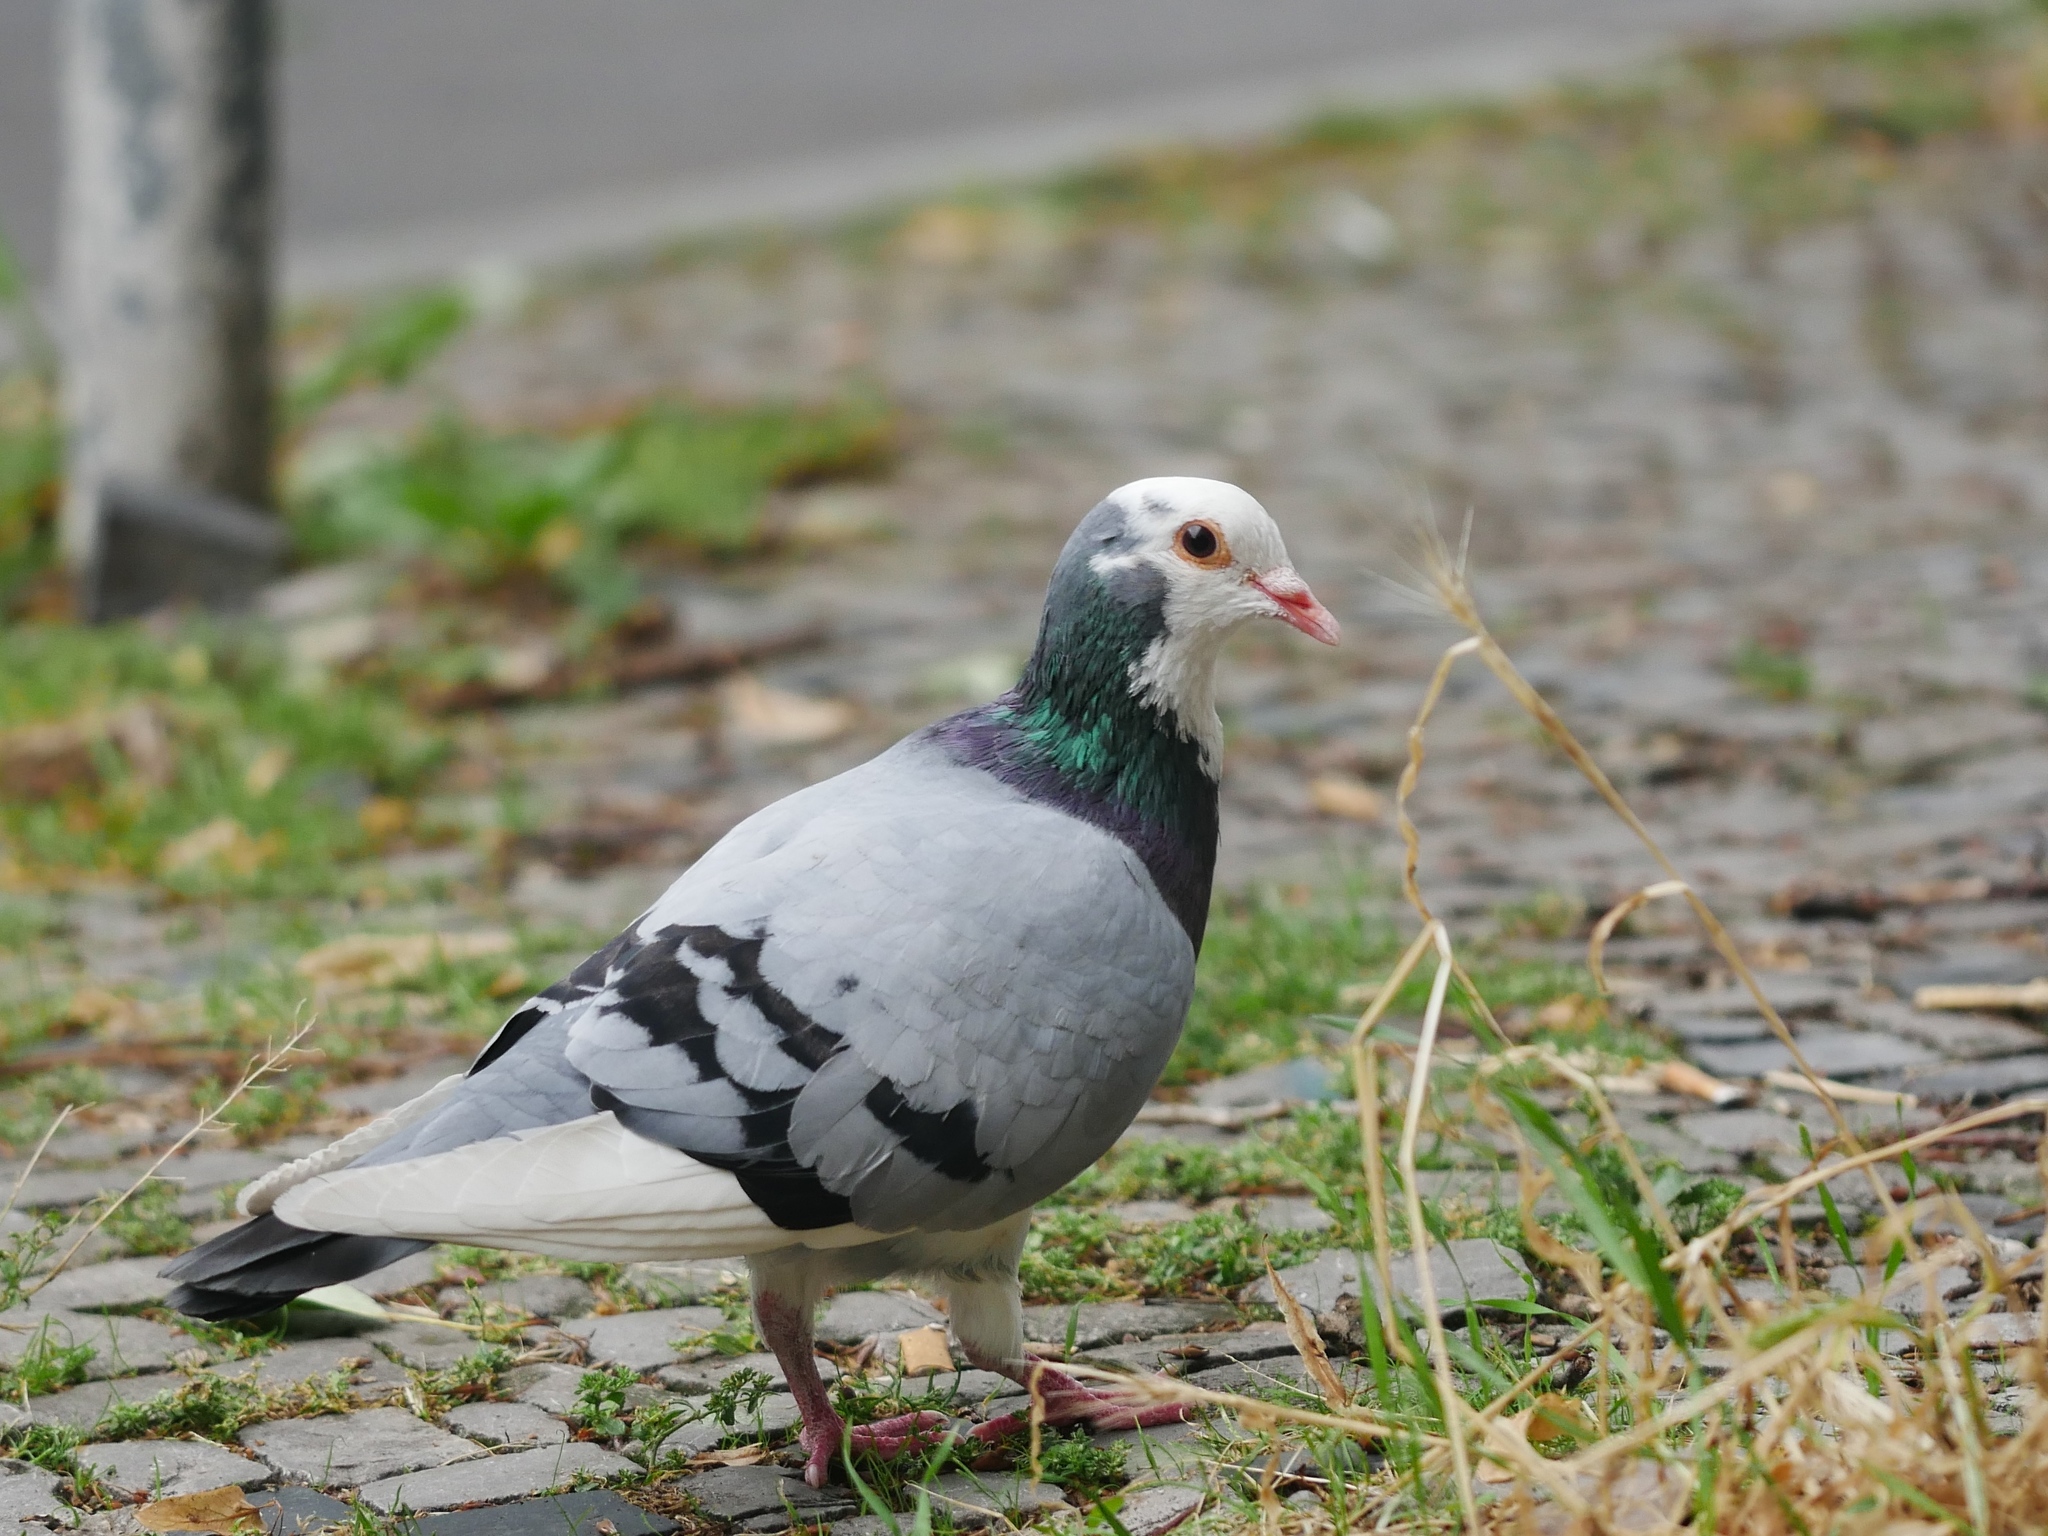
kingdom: Animalia
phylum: Chordata
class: Aves
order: Columbiformes
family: Columbidae
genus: Columba
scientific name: Columba livia
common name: Rock pigeon
